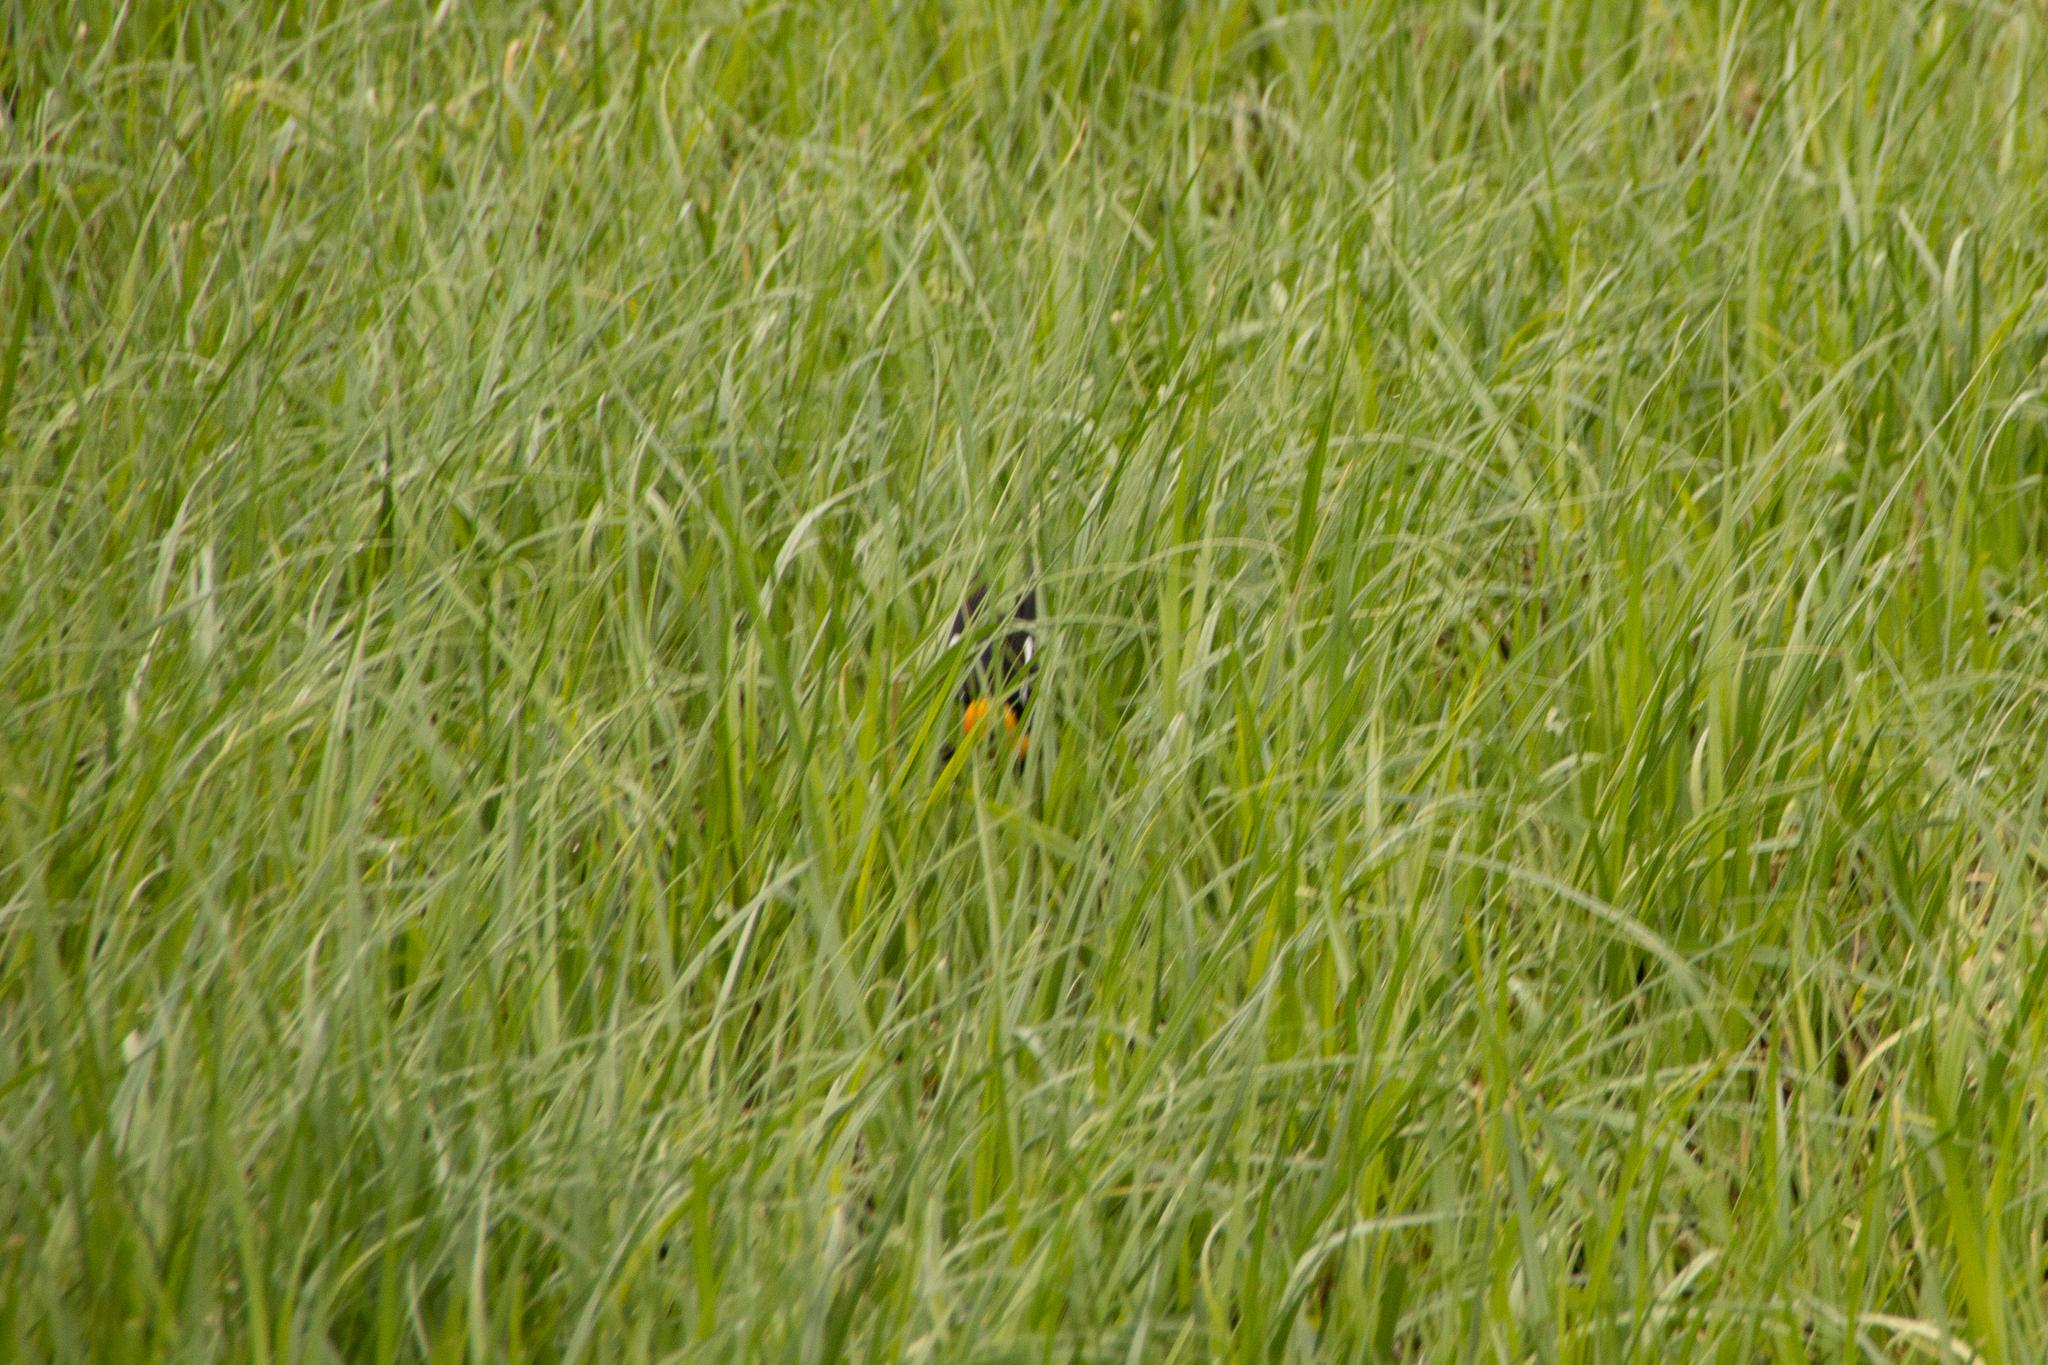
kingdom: Animalia
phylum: Chordata
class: Aves
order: Passeriformes
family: Icteridae
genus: Xanthocephalus
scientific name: Xanthocephalus xanthocephalus
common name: Yellow-headed blackbird
